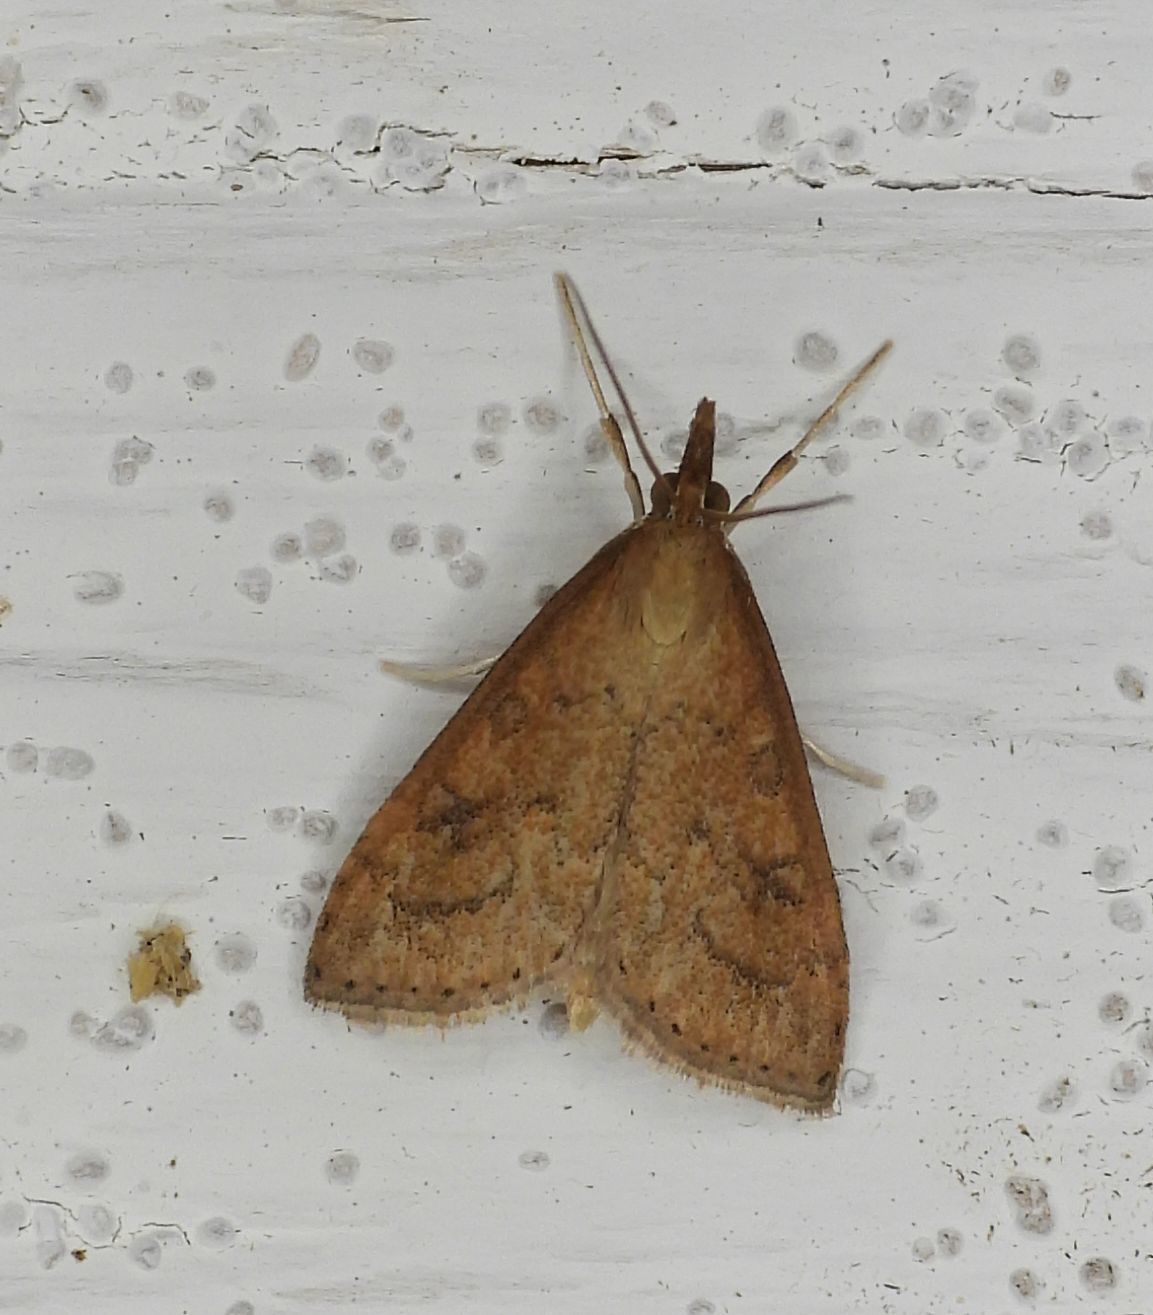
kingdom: Animalia
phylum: Arthropoda
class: Insecta
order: Lepidoptera
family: Crambidae
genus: Udea
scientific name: Udea rubigalis
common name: Celery leaftier moth
